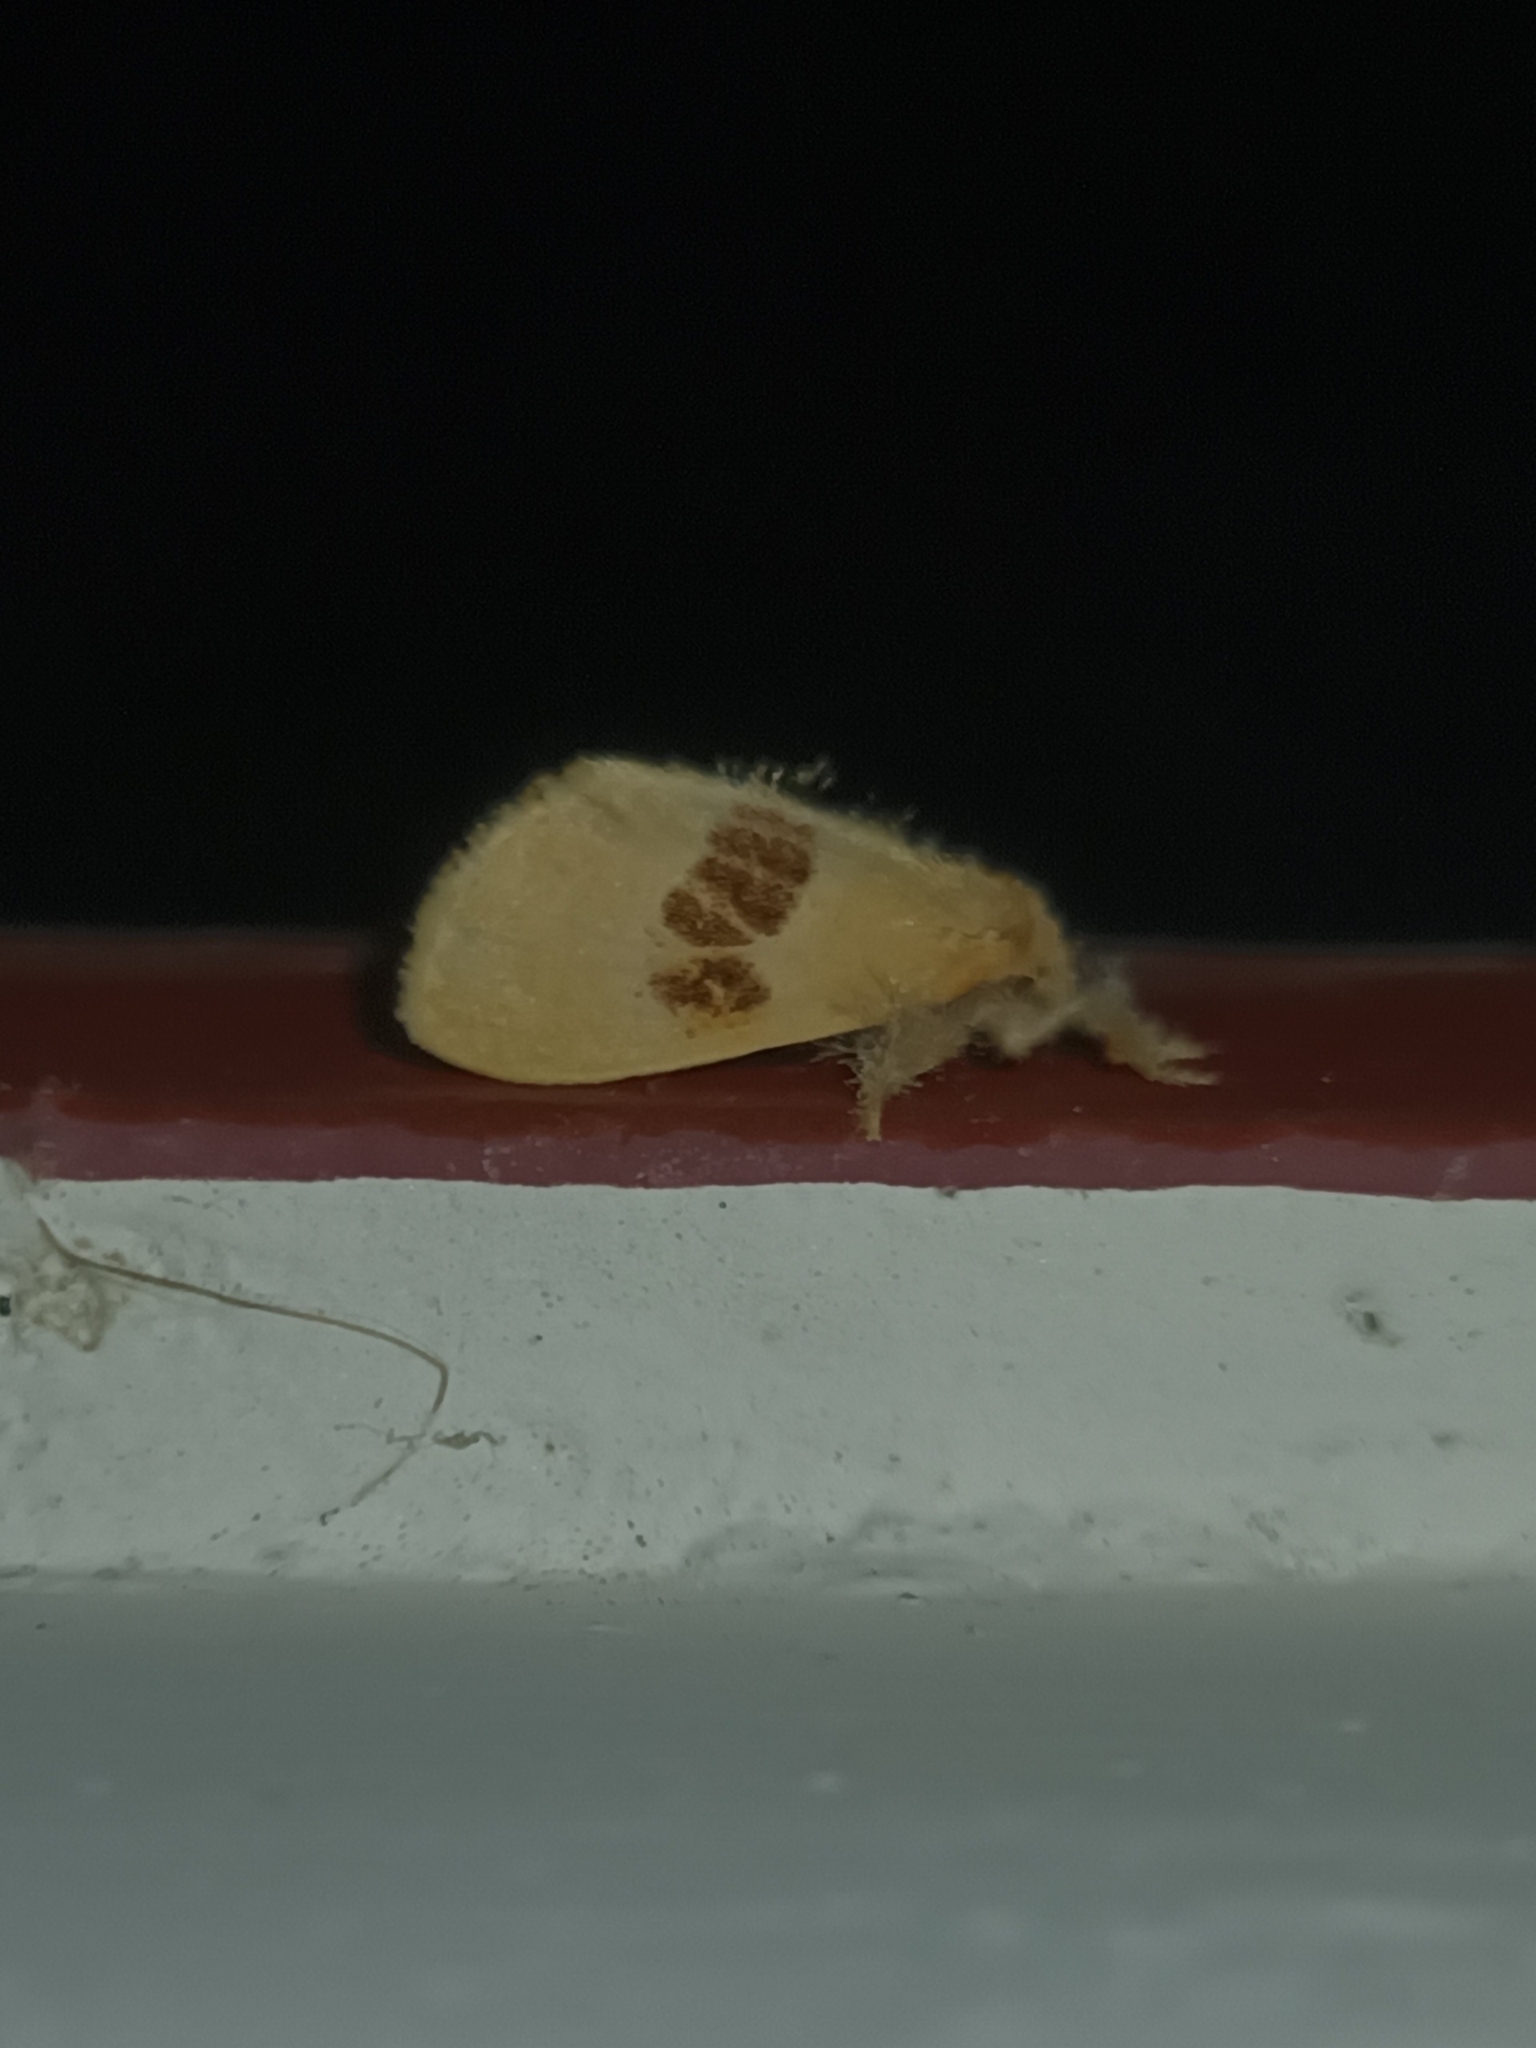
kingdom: Animalia
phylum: Arthropoda
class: Insecta
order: Lepidoptera
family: Erebidae
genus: Euproctis
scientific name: Euproctis erecta
